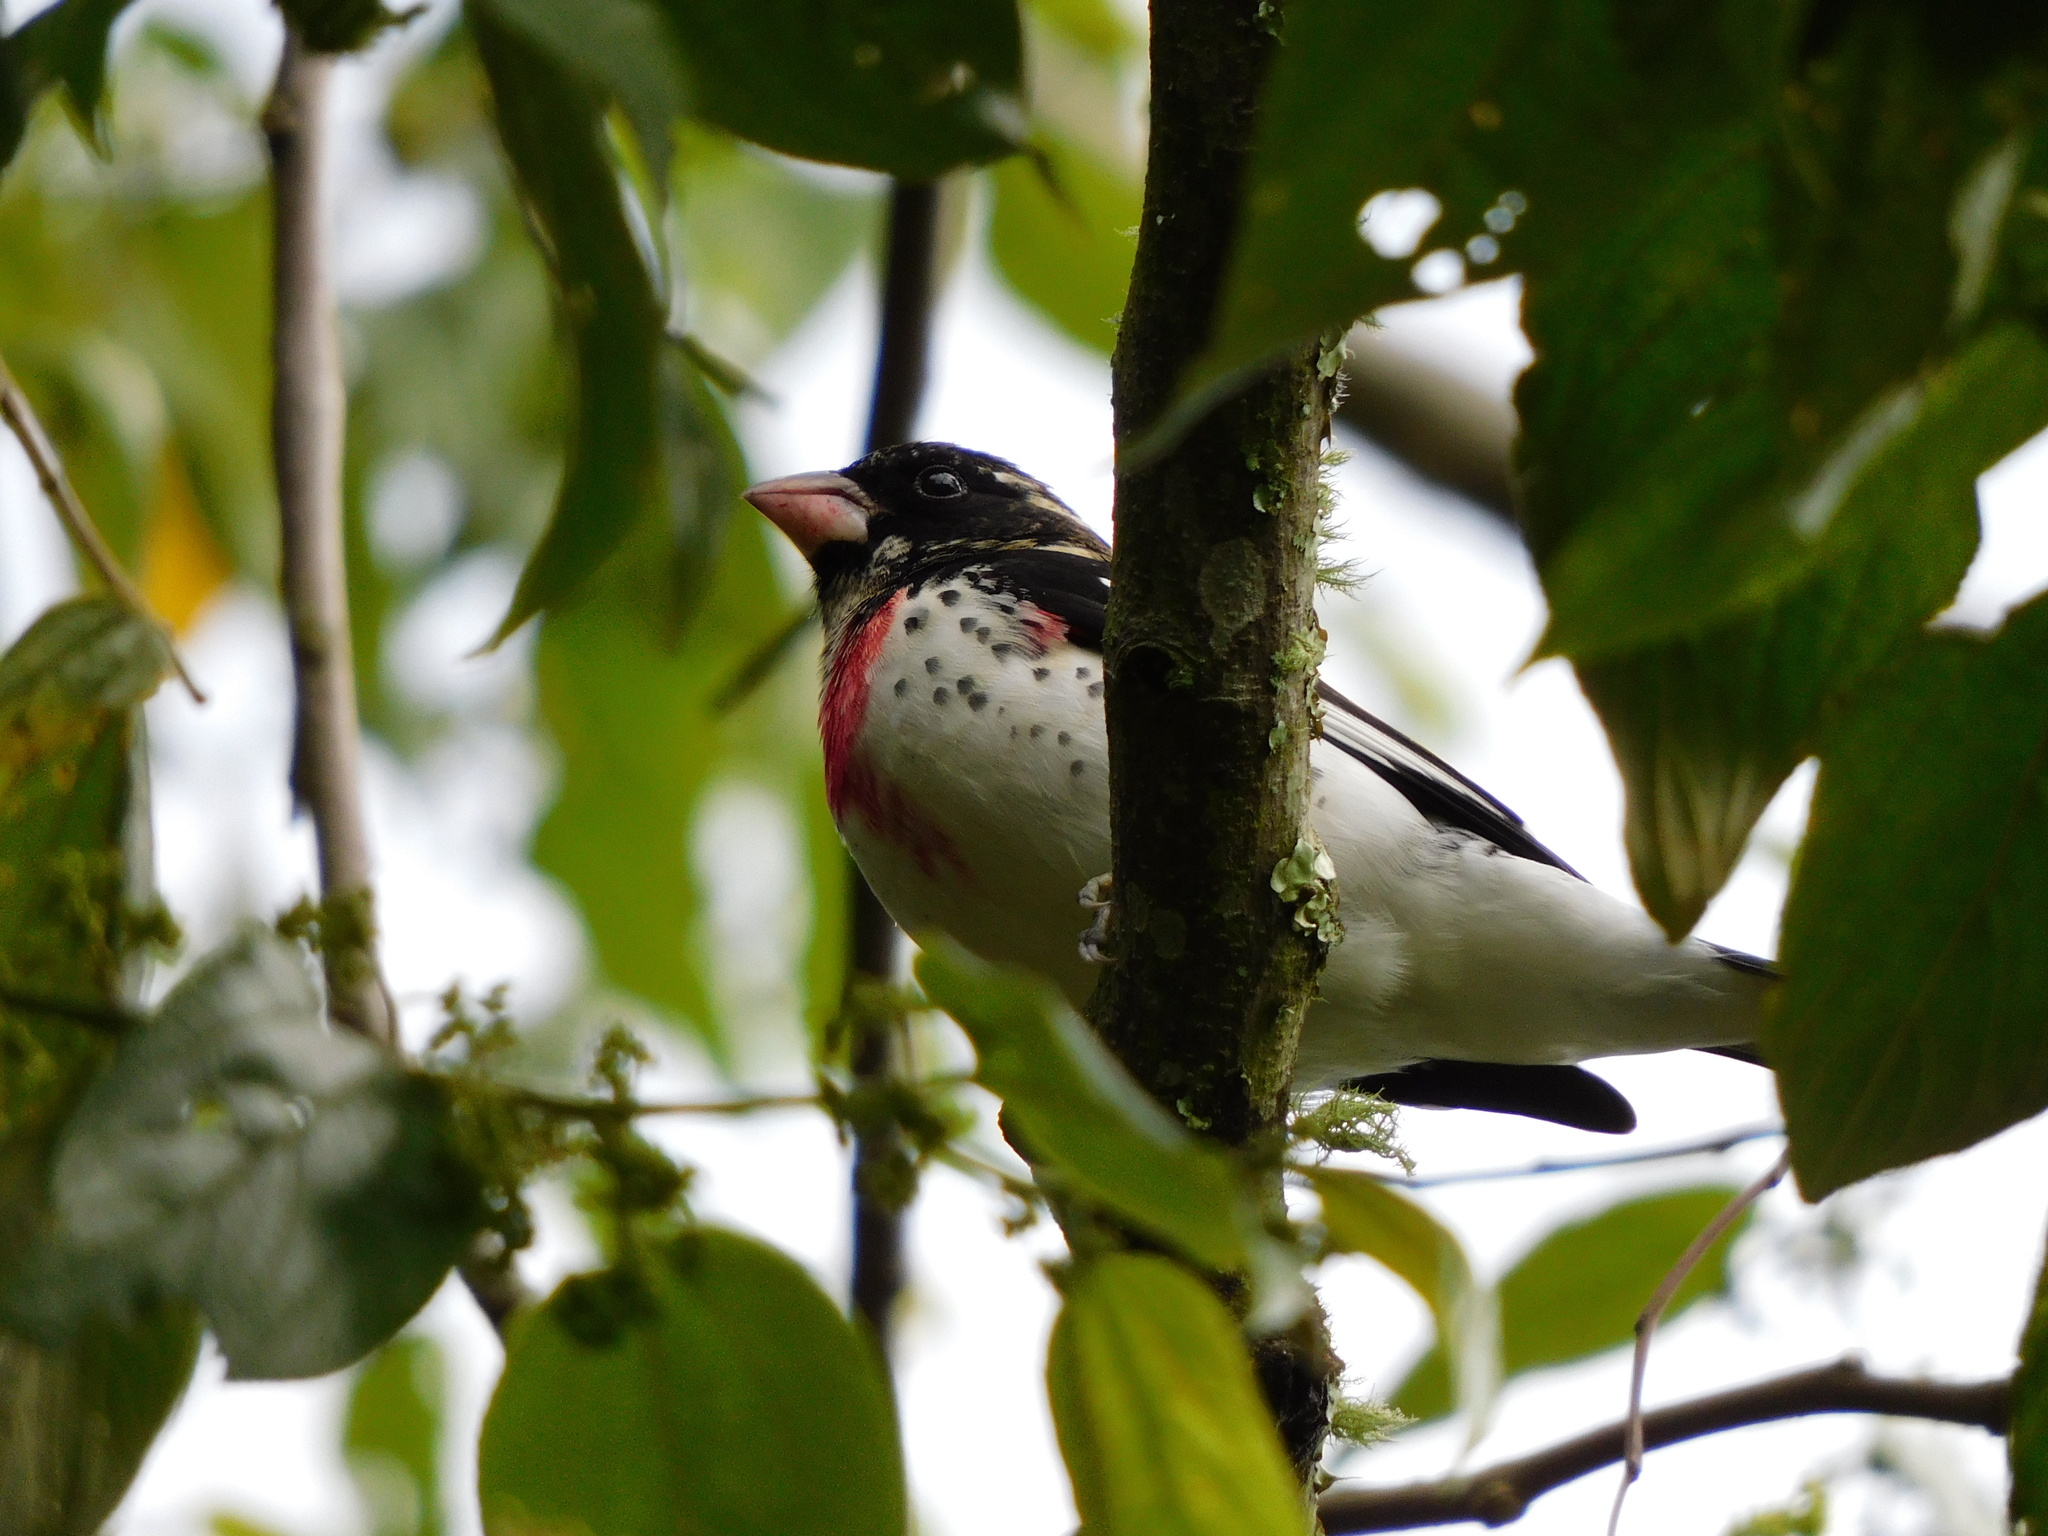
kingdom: Animalia
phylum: Chordata
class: Aves
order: Passeriformes
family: Cardinalidae
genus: Pheucticus
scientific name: Pheucticus ludovicianus
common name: Rose-breasted grosbeak
